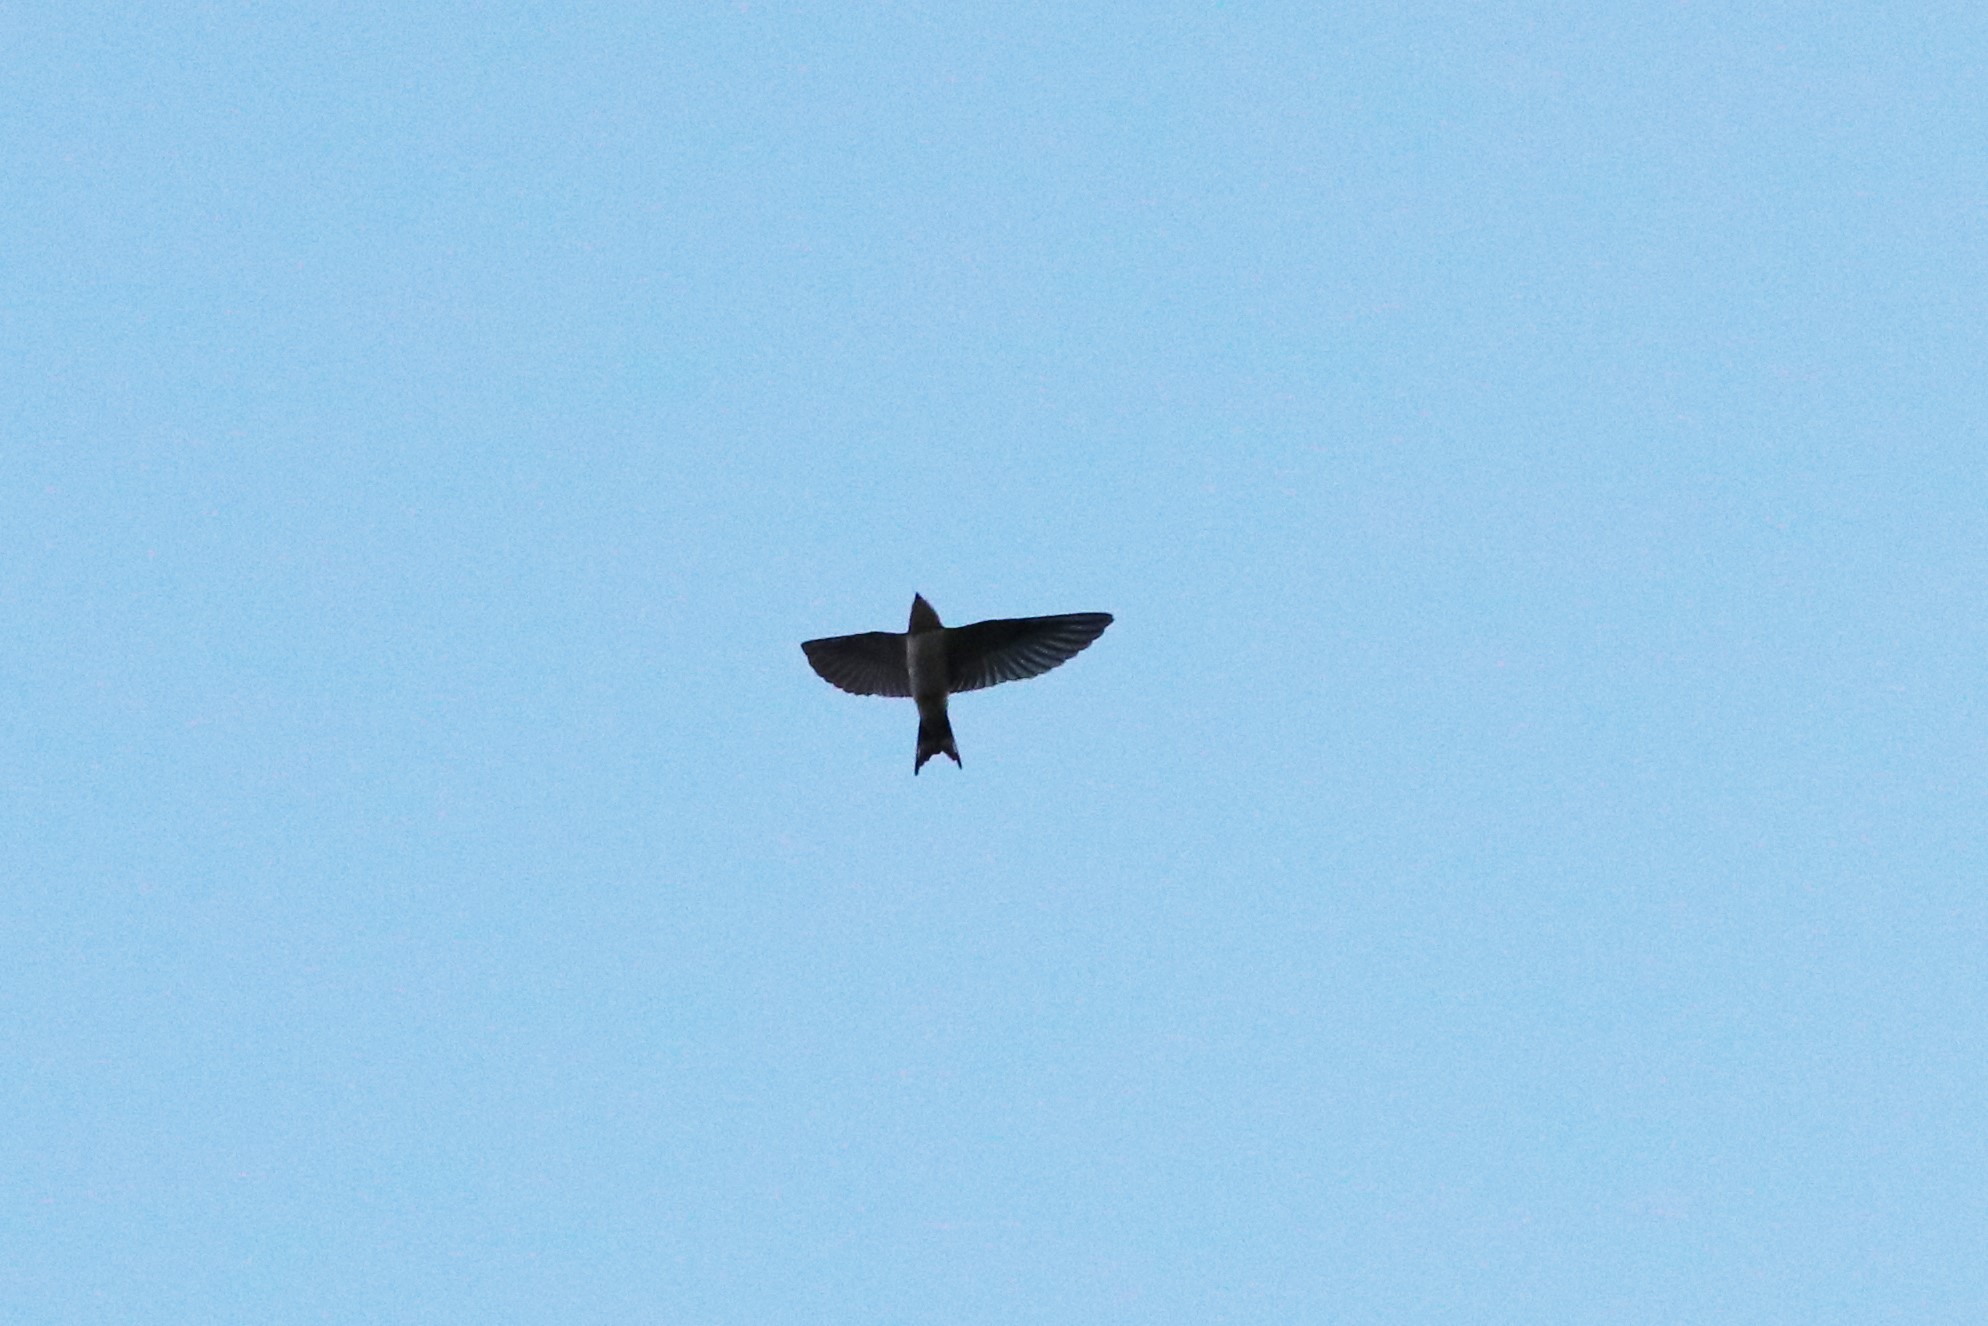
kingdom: Animalia
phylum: Chordata
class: Aves
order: Passeriformes
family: Hirundinidae
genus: Hirundo
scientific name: Hirundo rustica
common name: Barn swallow
